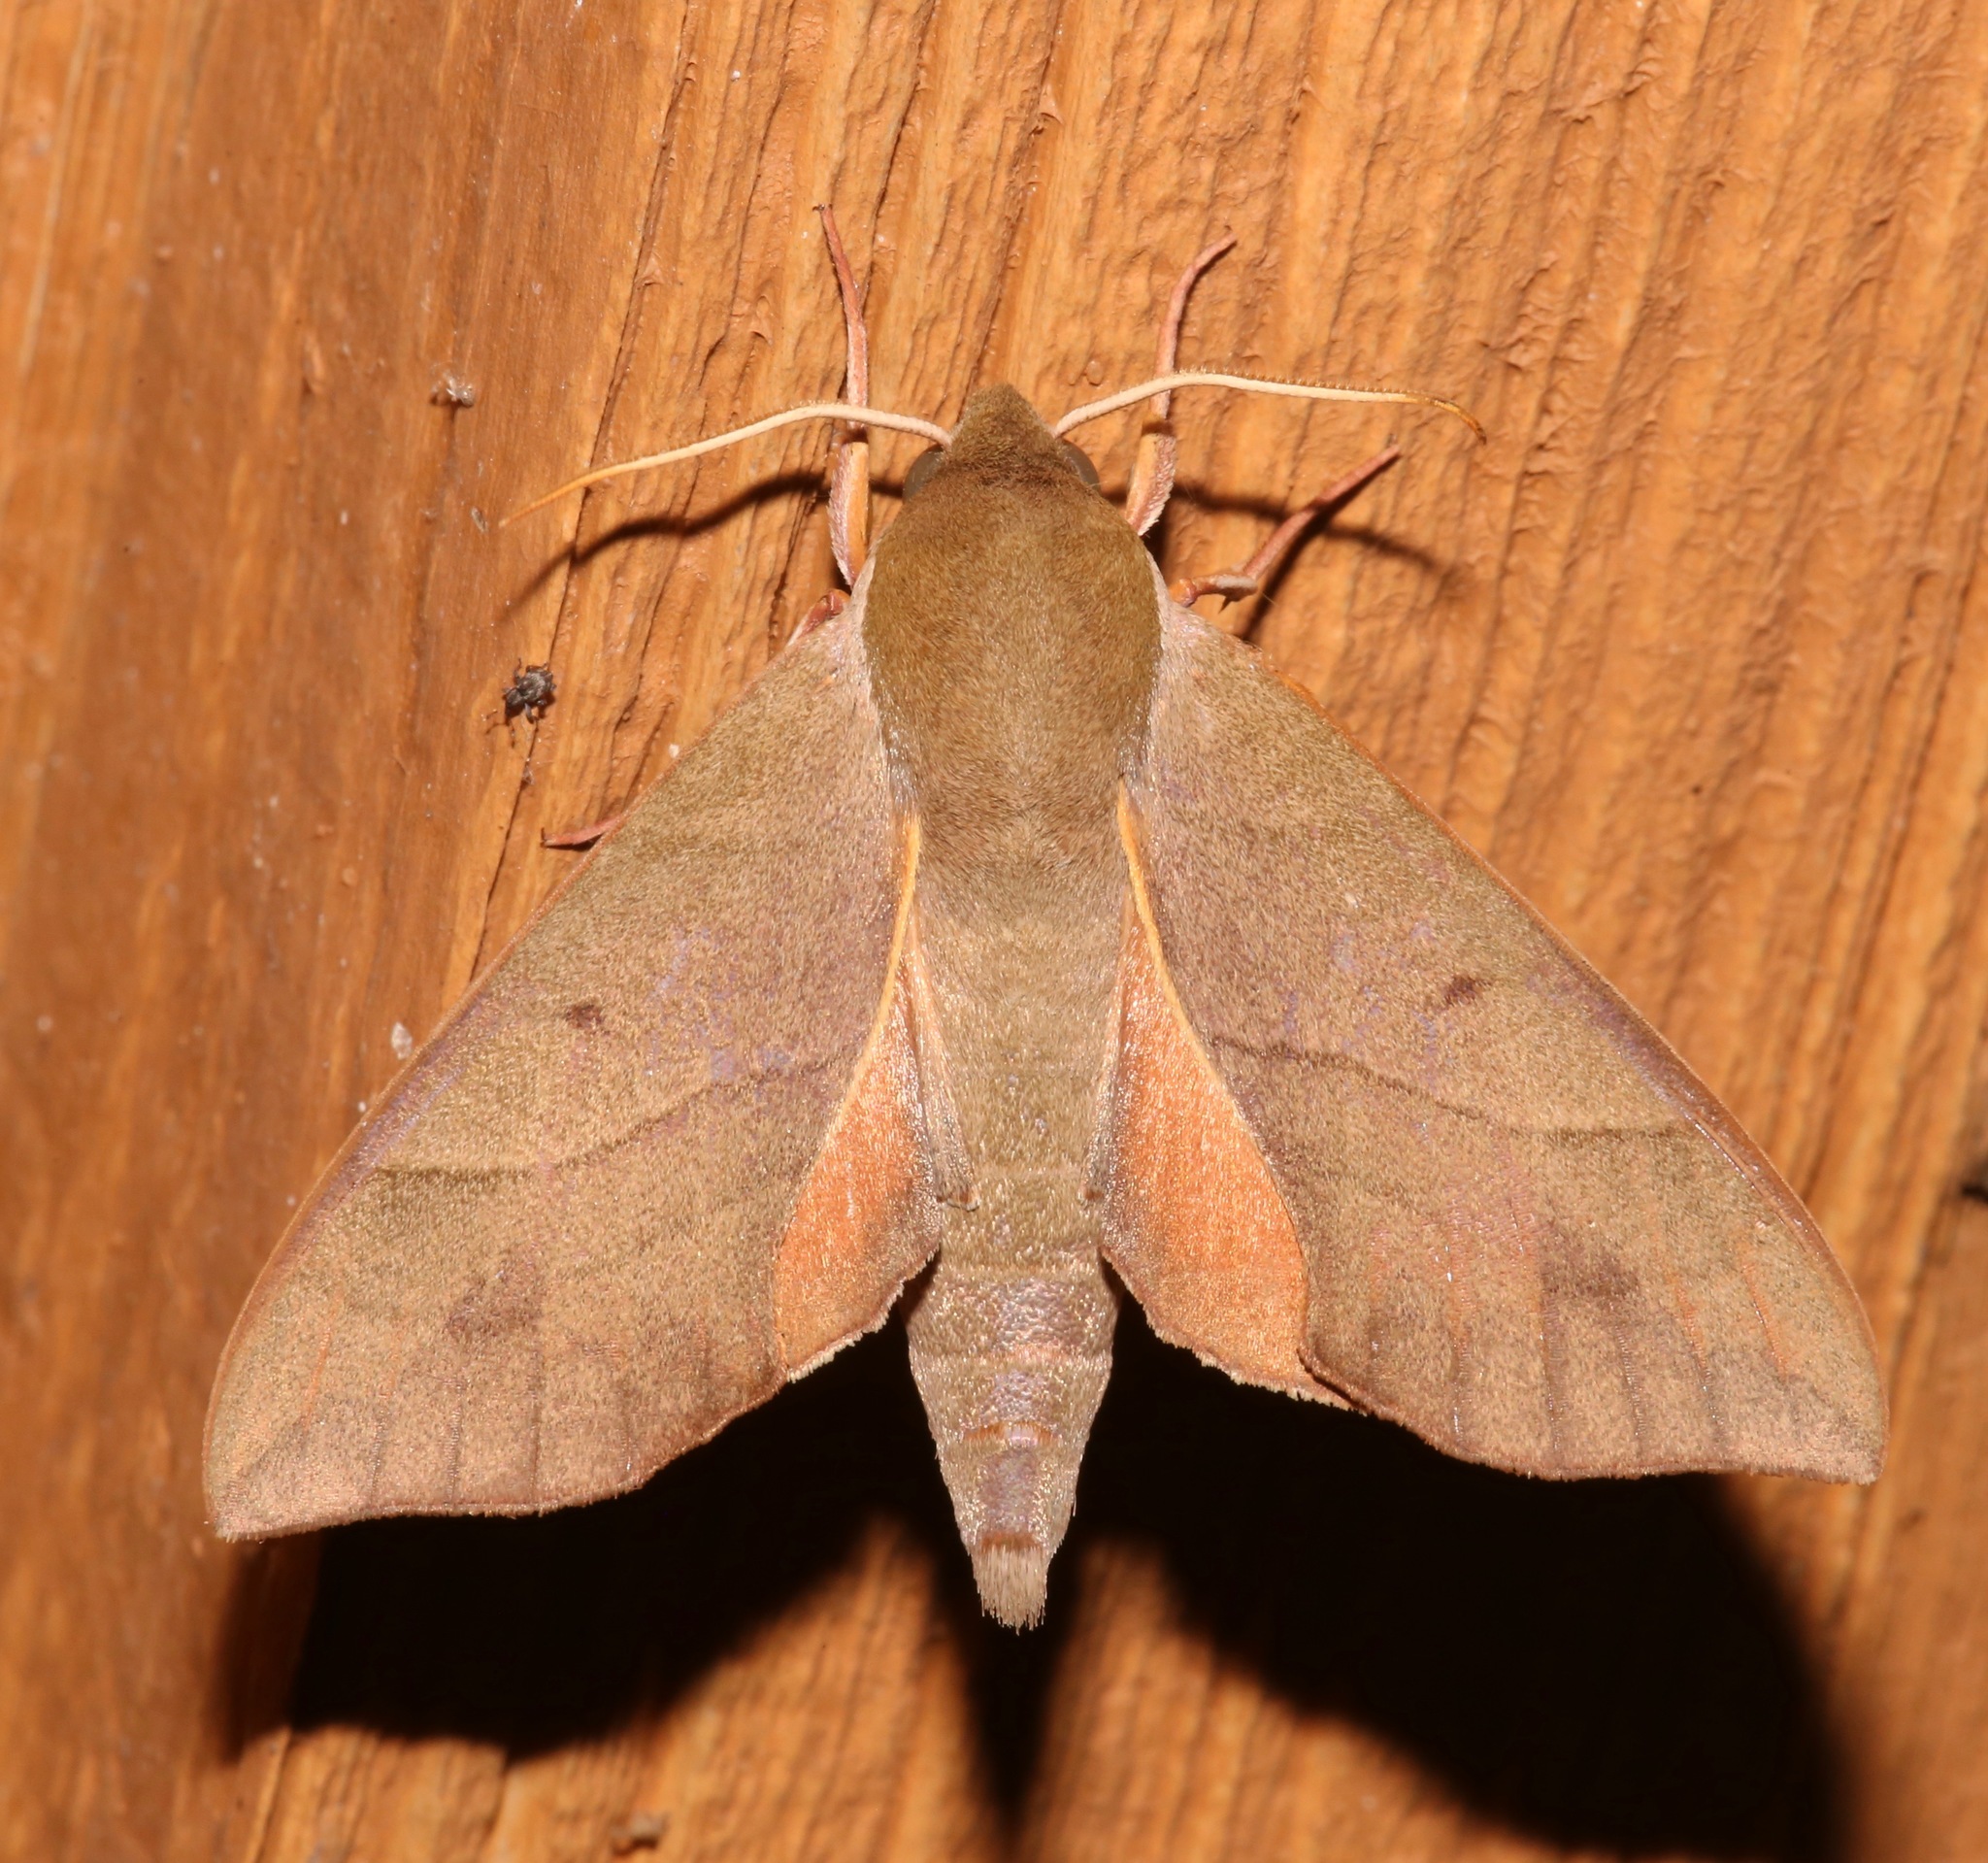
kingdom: Animalia
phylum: Arthropoda
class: Insecta
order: Lepidoptera
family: Sphingidae
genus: Darapsa
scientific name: Darapsa myron
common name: Hog sphinx
